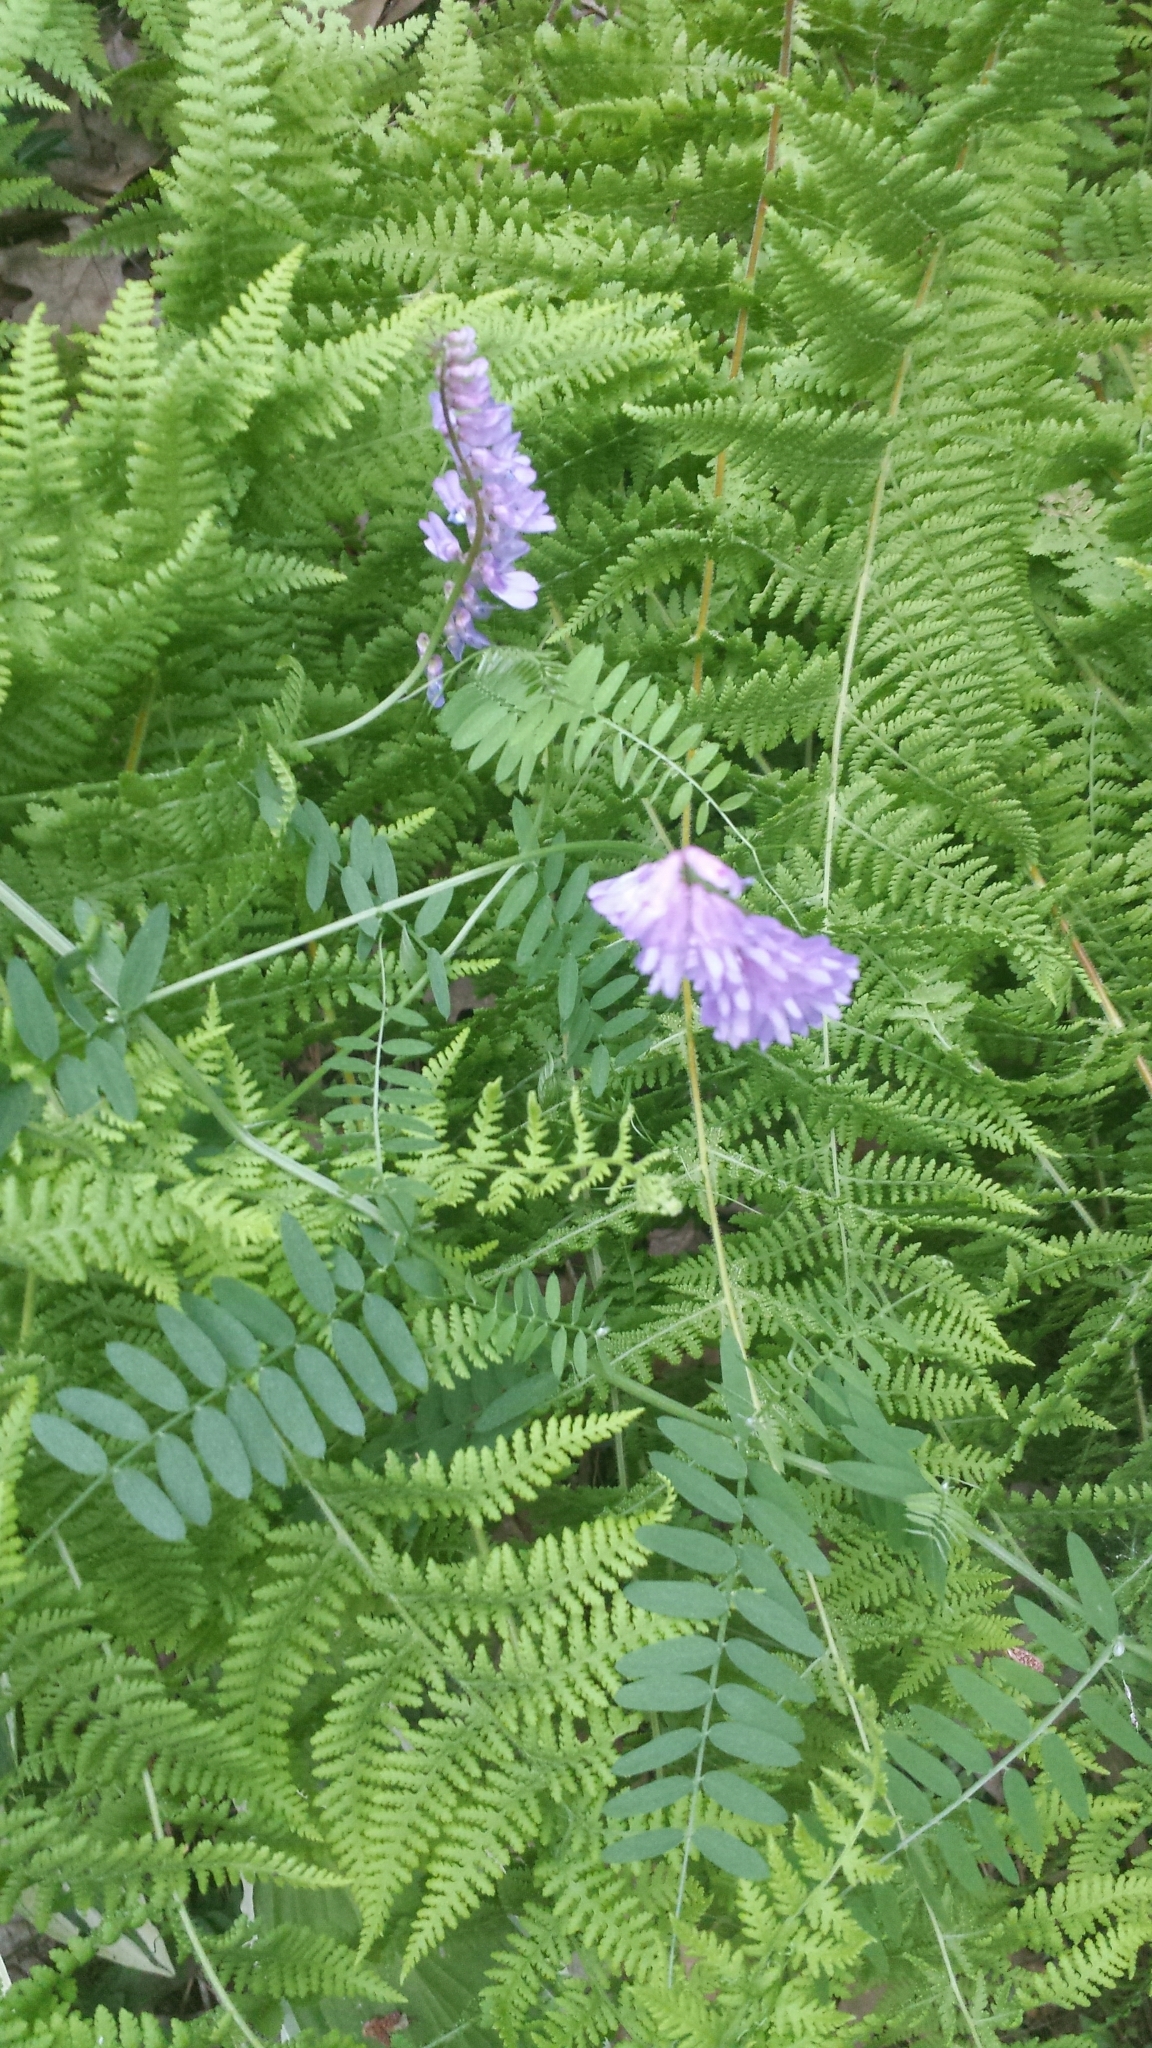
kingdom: Plantae
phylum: Tracheophyta
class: Magnoliopsida
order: Fabales
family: Fabaceae
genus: Vicia
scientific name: Vicia cracca
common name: Bird vetch
